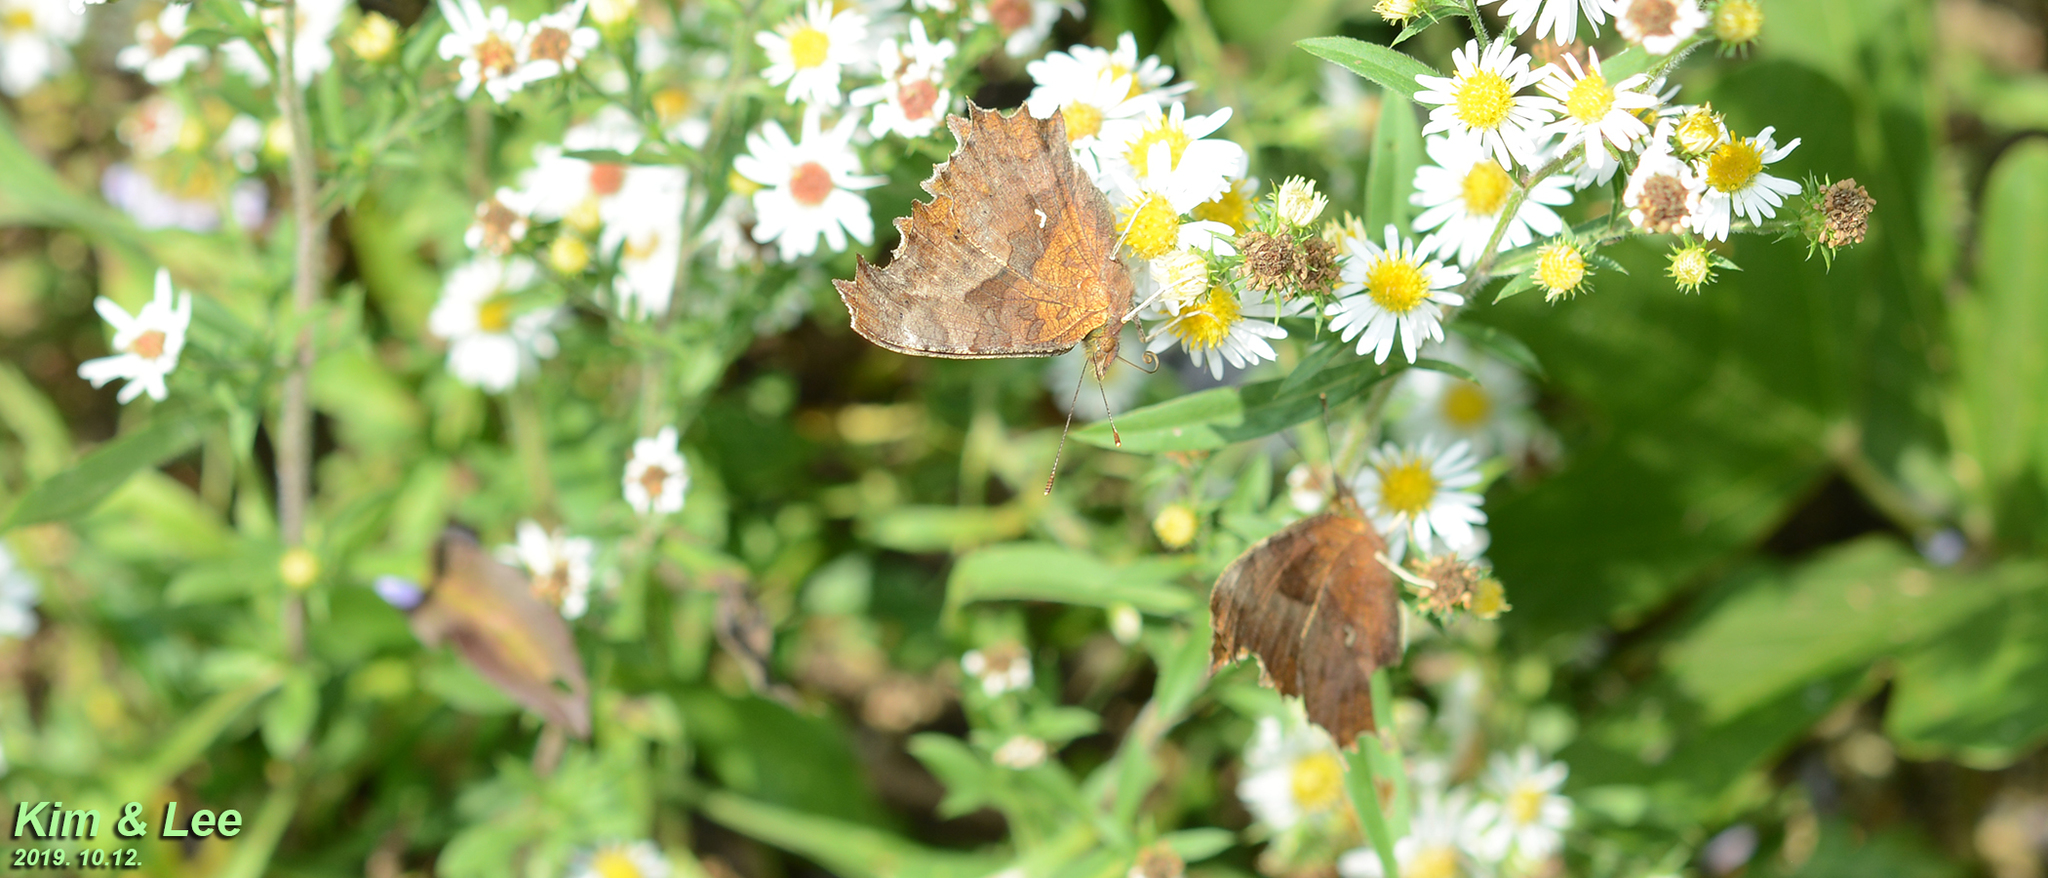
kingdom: Animalia
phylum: Arthropoda
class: Insecta
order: Lepidoptera
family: Nymphalidae
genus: Polygonia
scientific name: Polygonia c-aureum
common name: Asian comma
